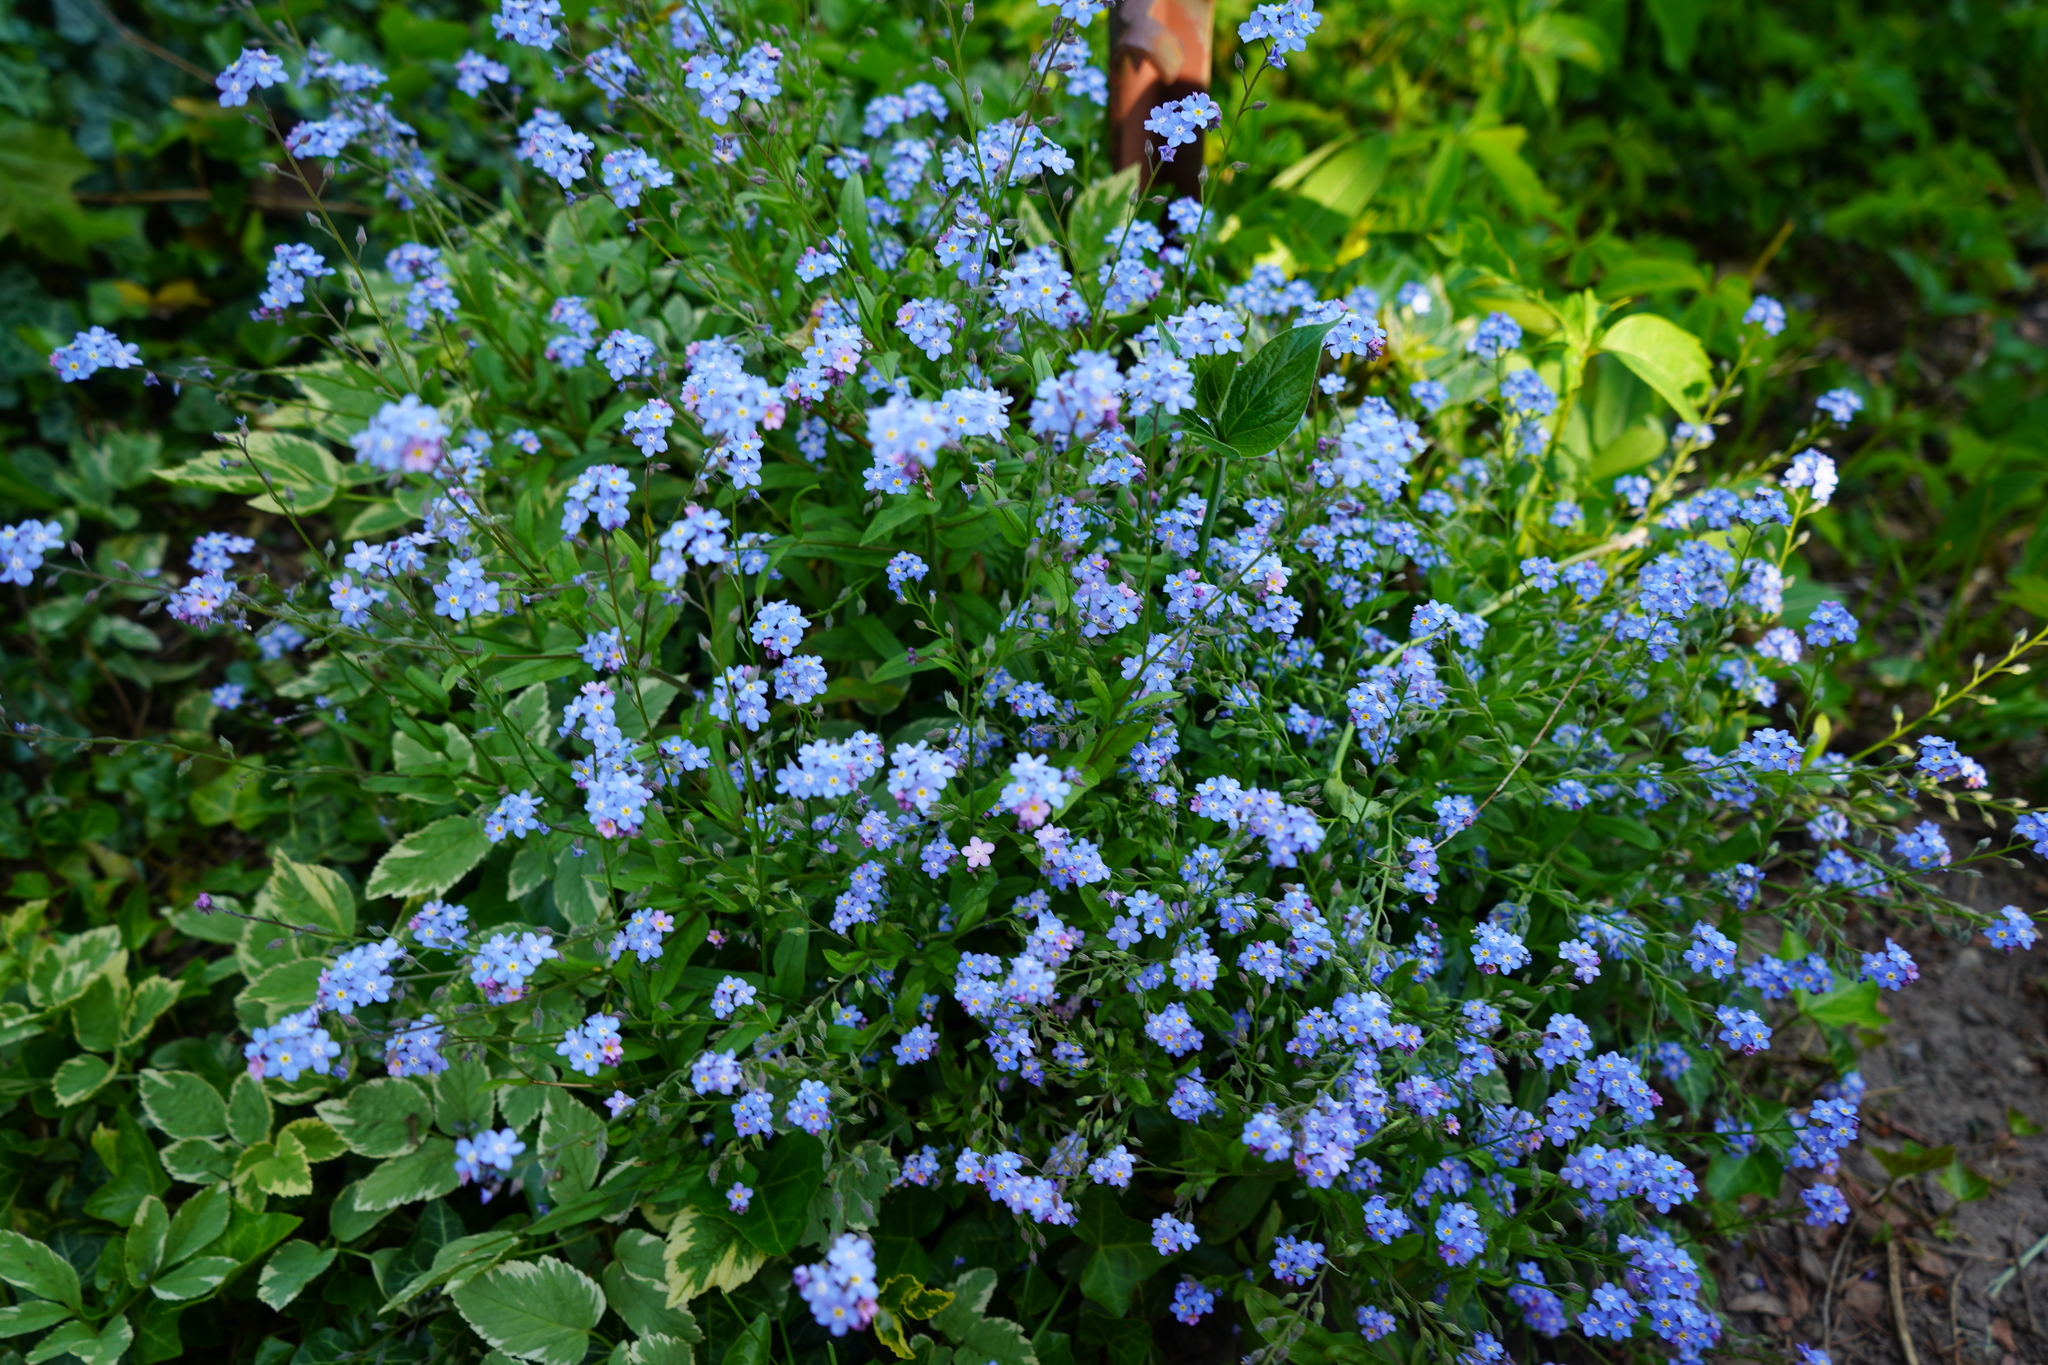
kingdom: Plantae
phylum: Tracheophyta
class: Magnoliopsida
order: Boraginales
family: Boraginaceae
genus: Myosotis
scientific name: Myosotis sylvatica
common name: Wood forget-me-not
